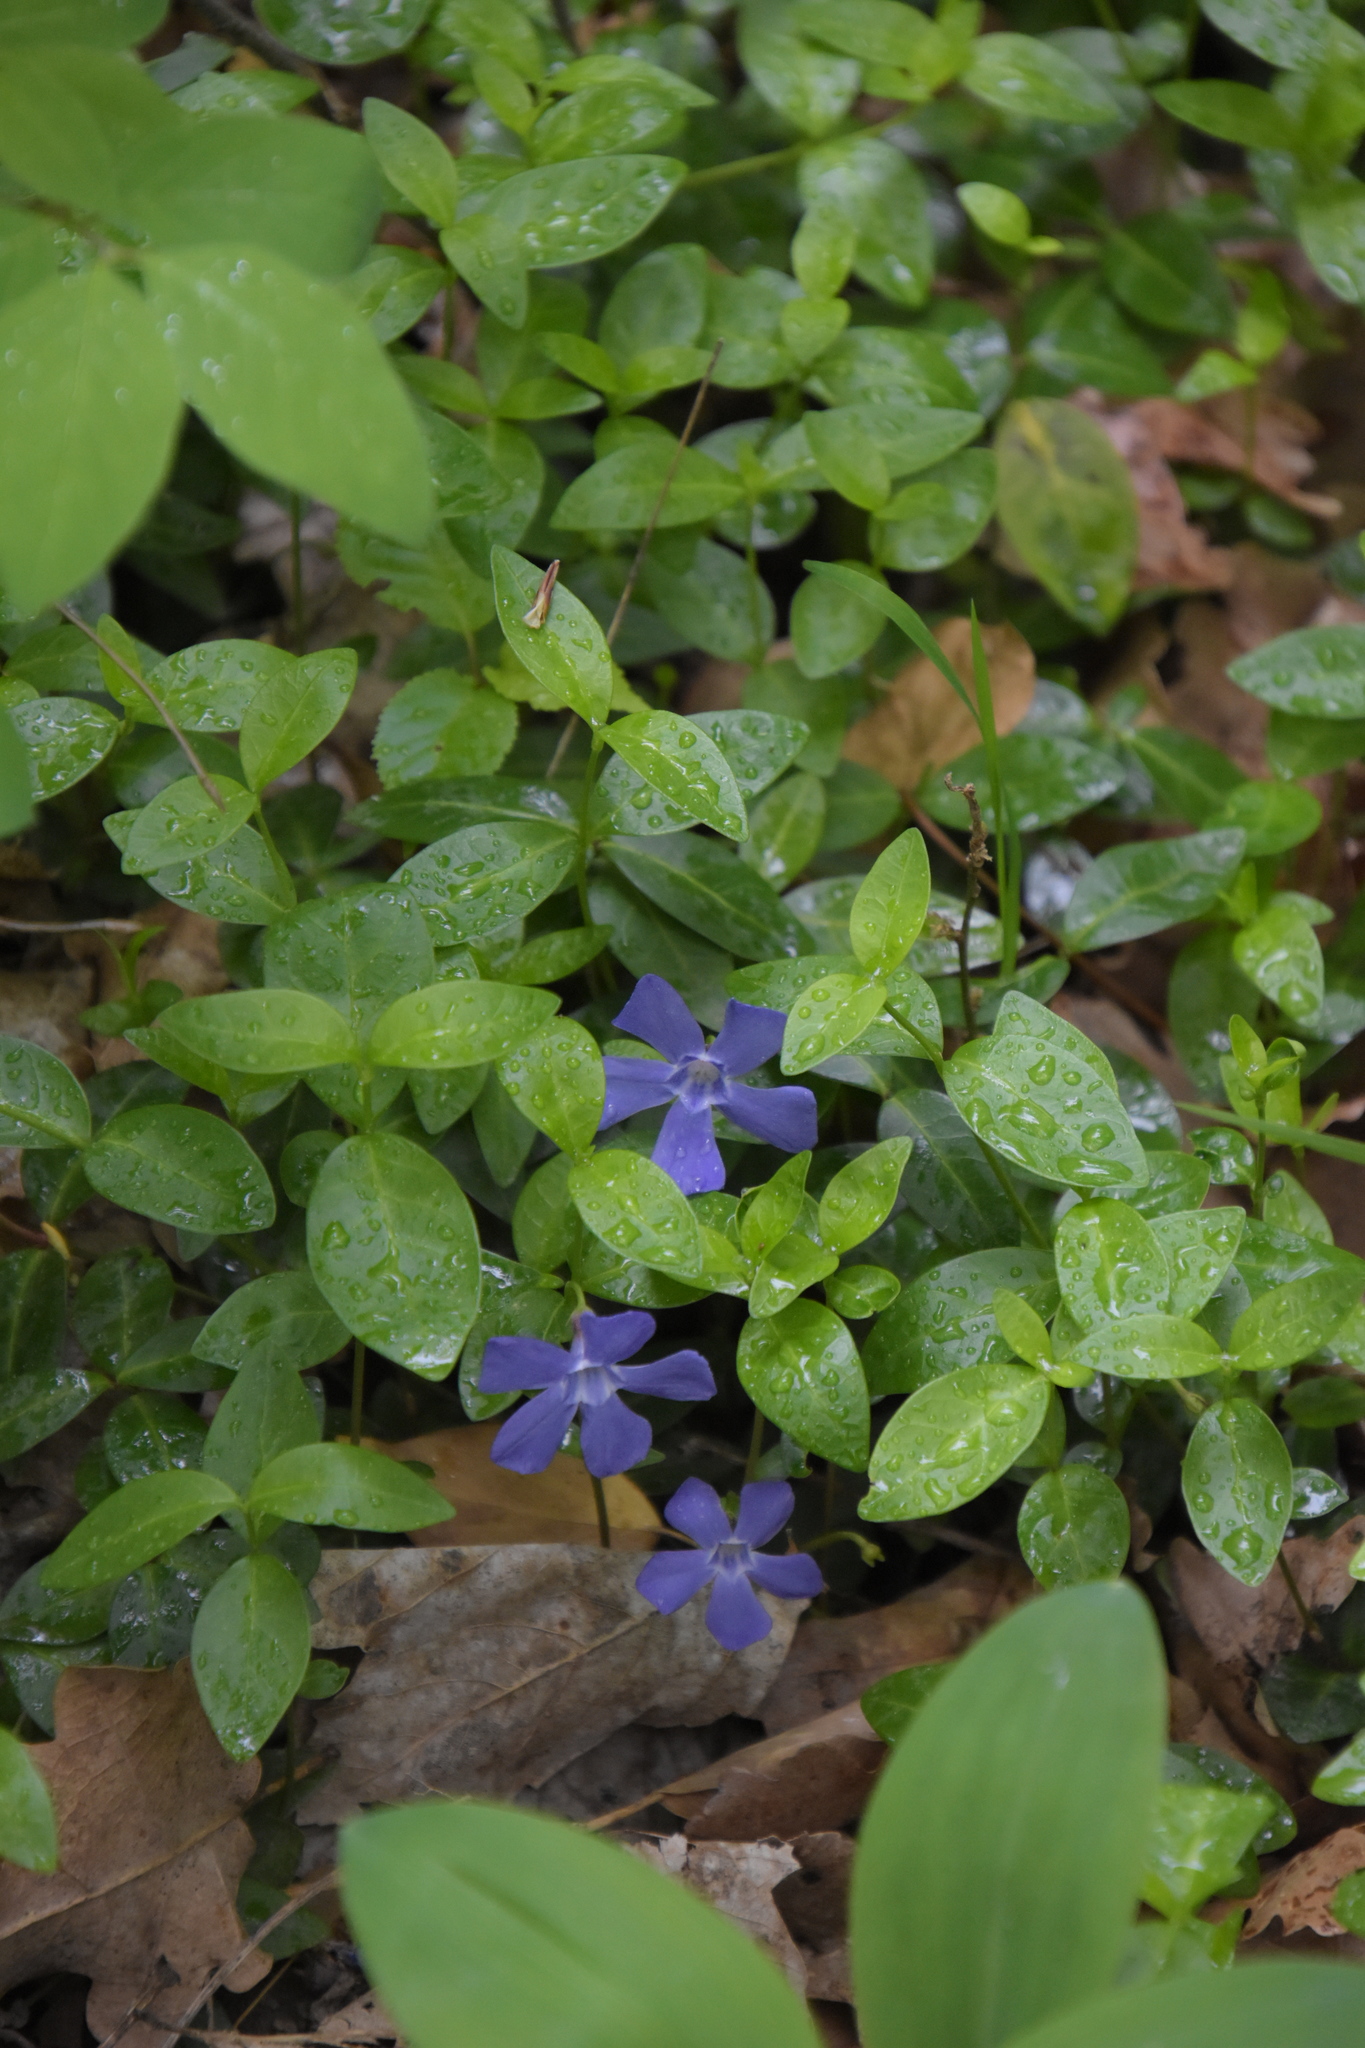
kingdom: Plantae
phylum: Tracheophyta
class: Magnoliopsida
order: Gentianales
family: Apocynaceae
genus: Vinca
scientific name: Vinca minor
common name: Lesser periwinkle
